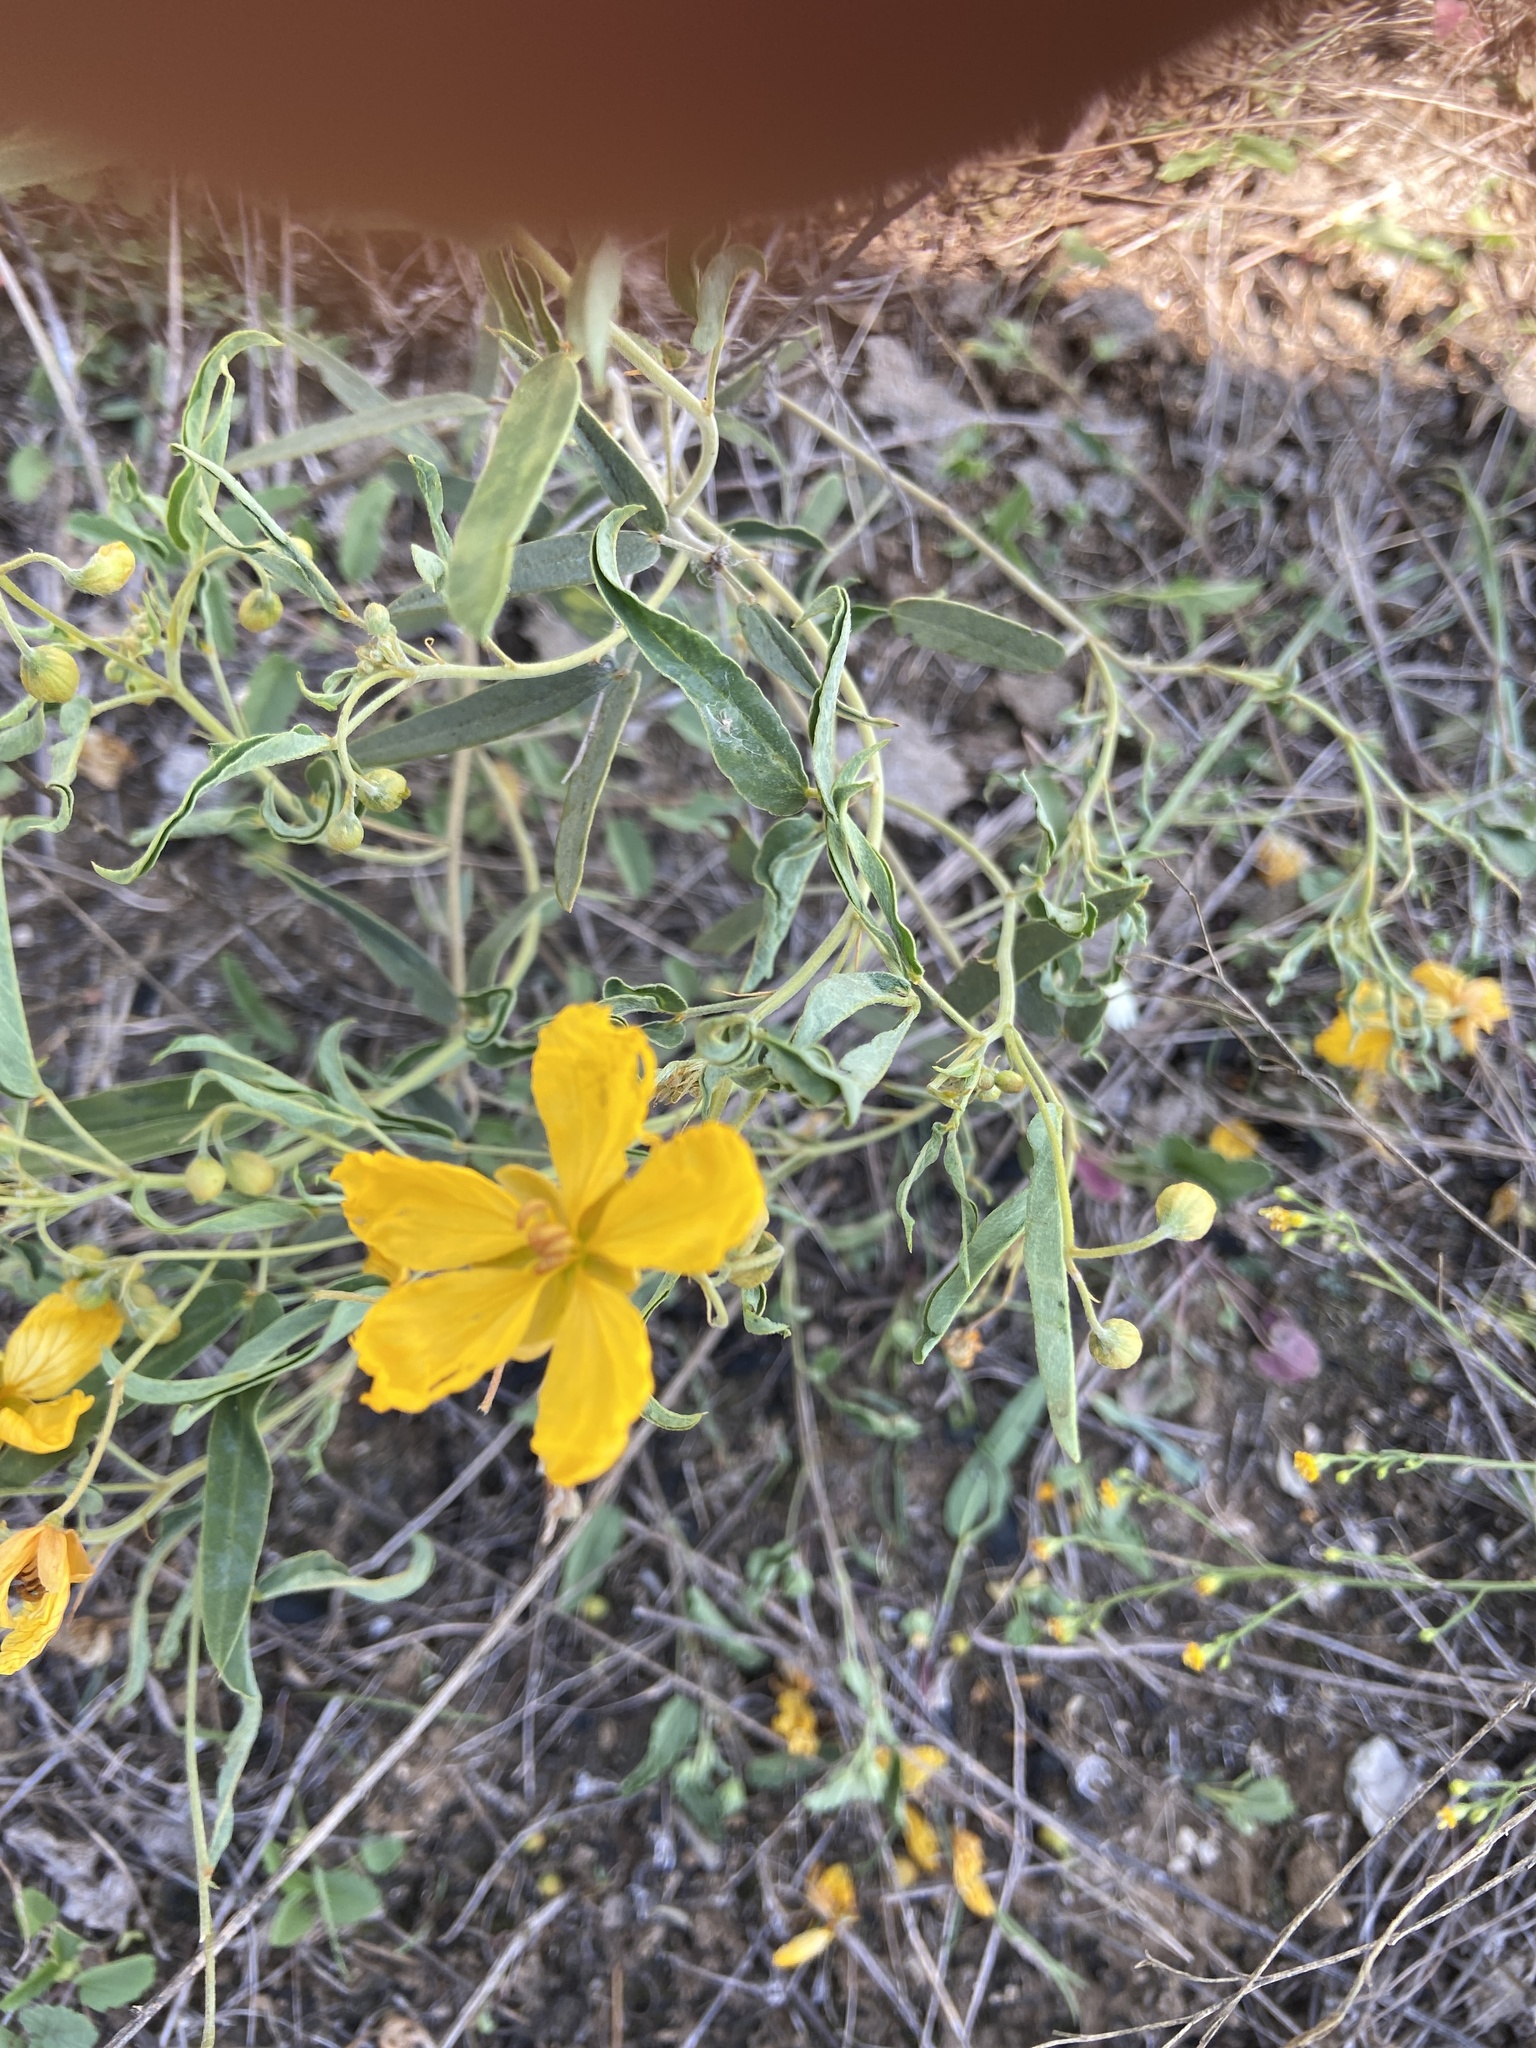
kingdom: Plantae
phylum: Tracheophyta
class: Magnoliopsida
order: Fabales
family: Fabaceae
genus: Senna
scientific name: Senna roemeriana
